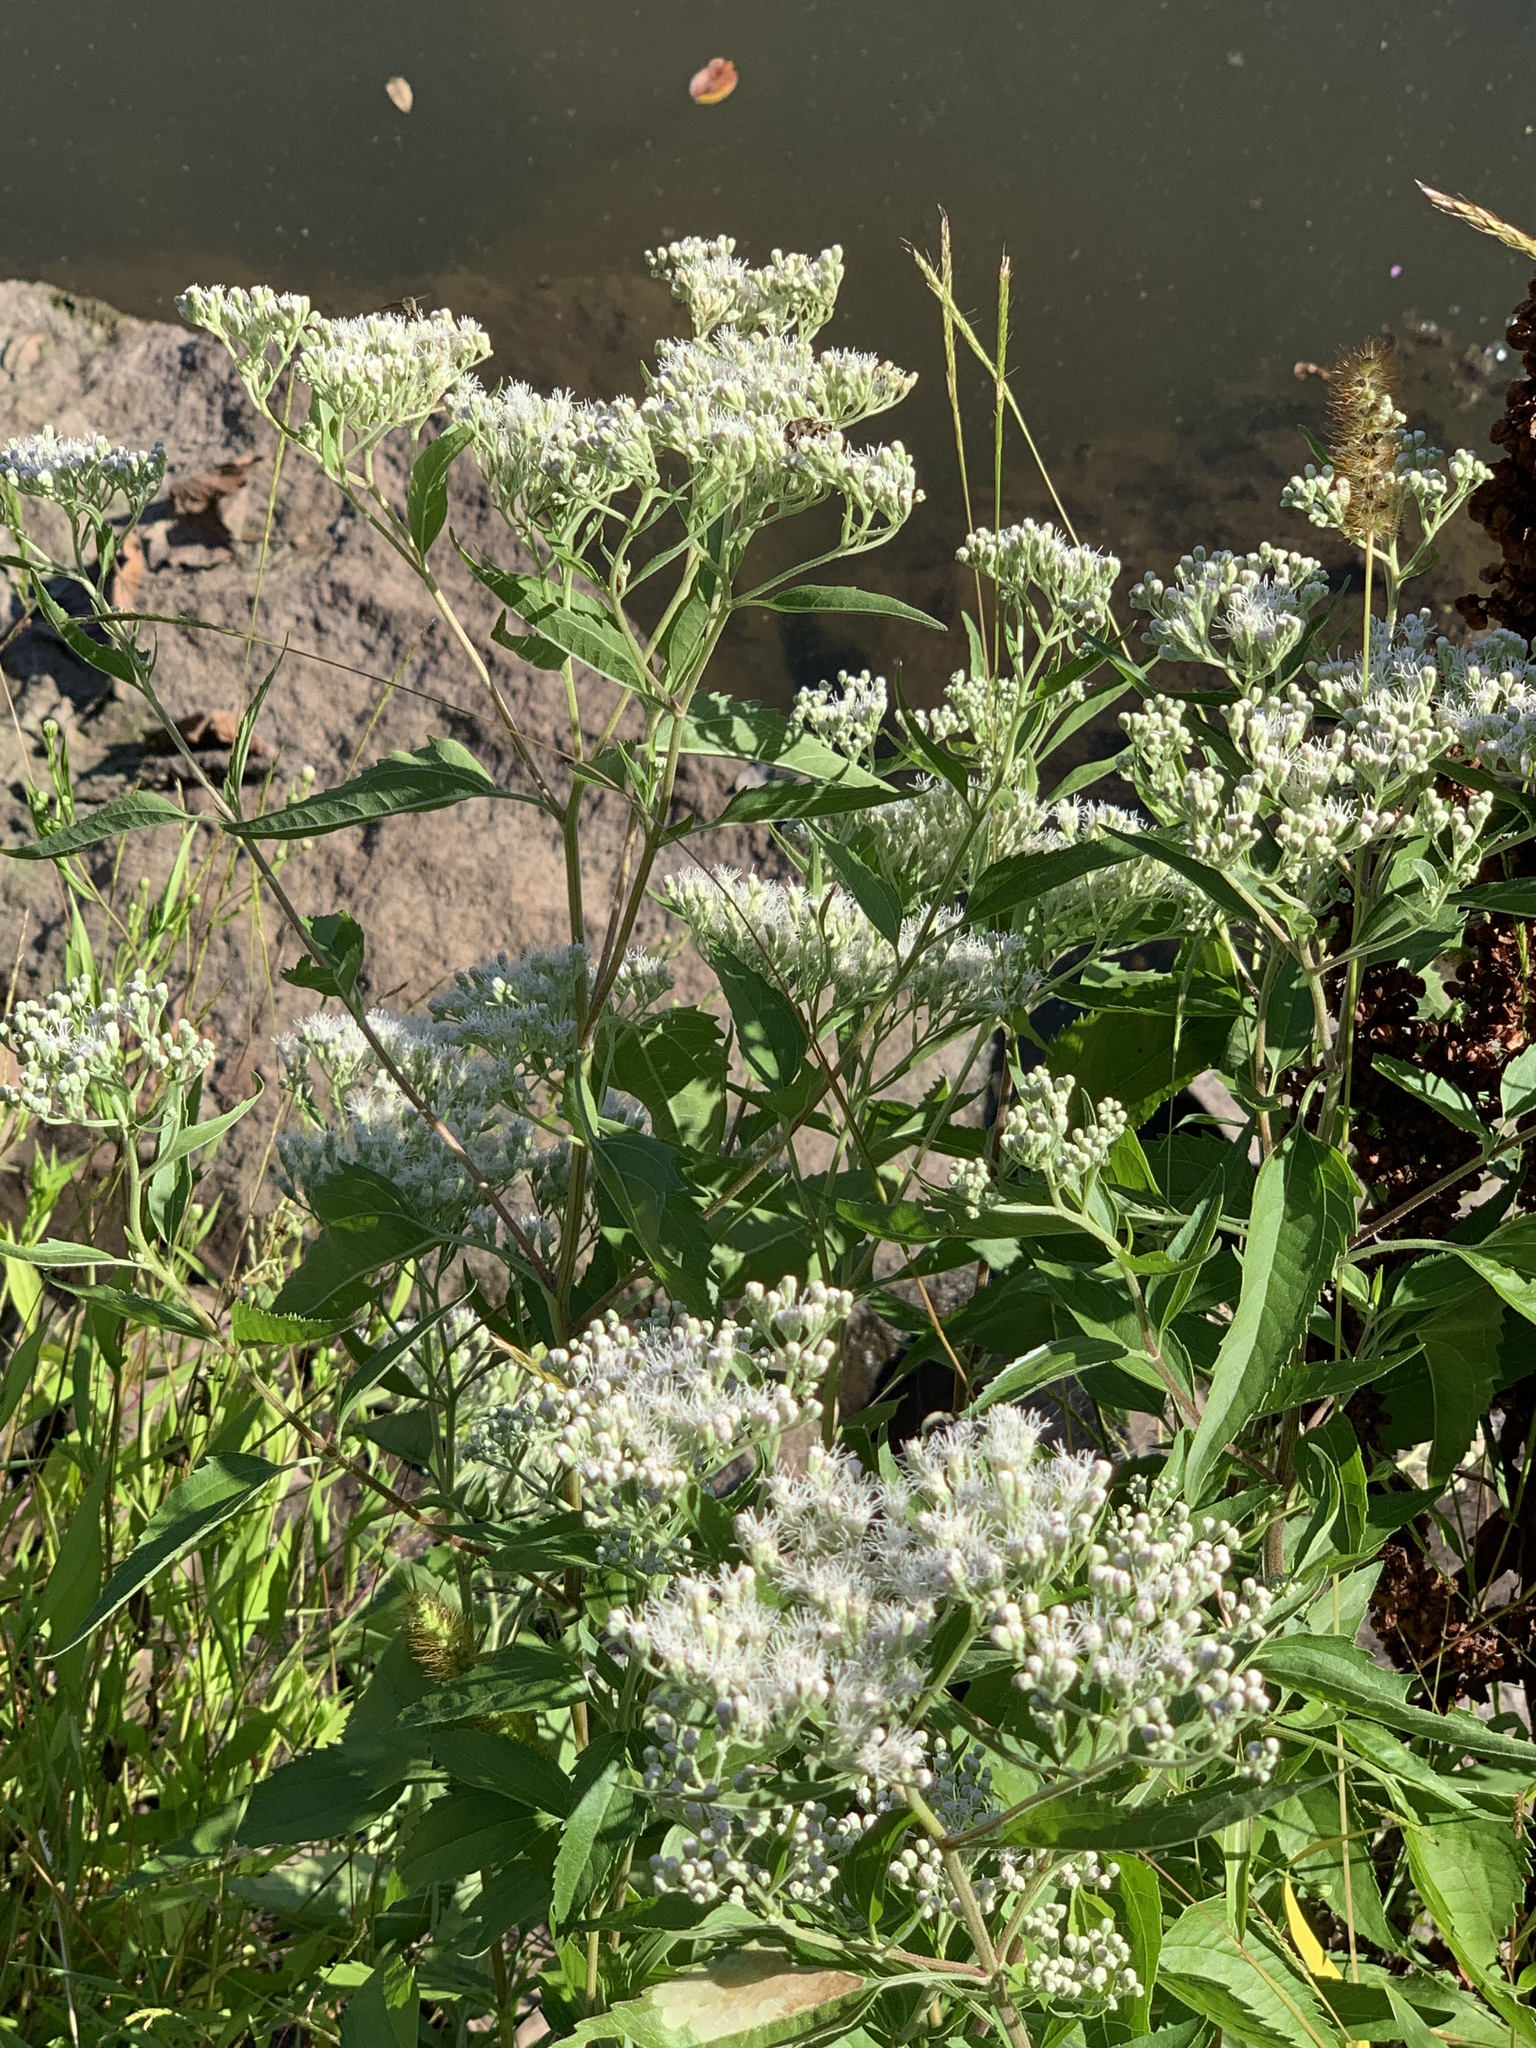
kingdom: Plantae
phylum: Tracheophyta
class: Magnoliopsida
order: Asterales
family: Asteraceae
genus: Eupatorium
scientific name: Eupatorium serotinum
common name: Late boneset
